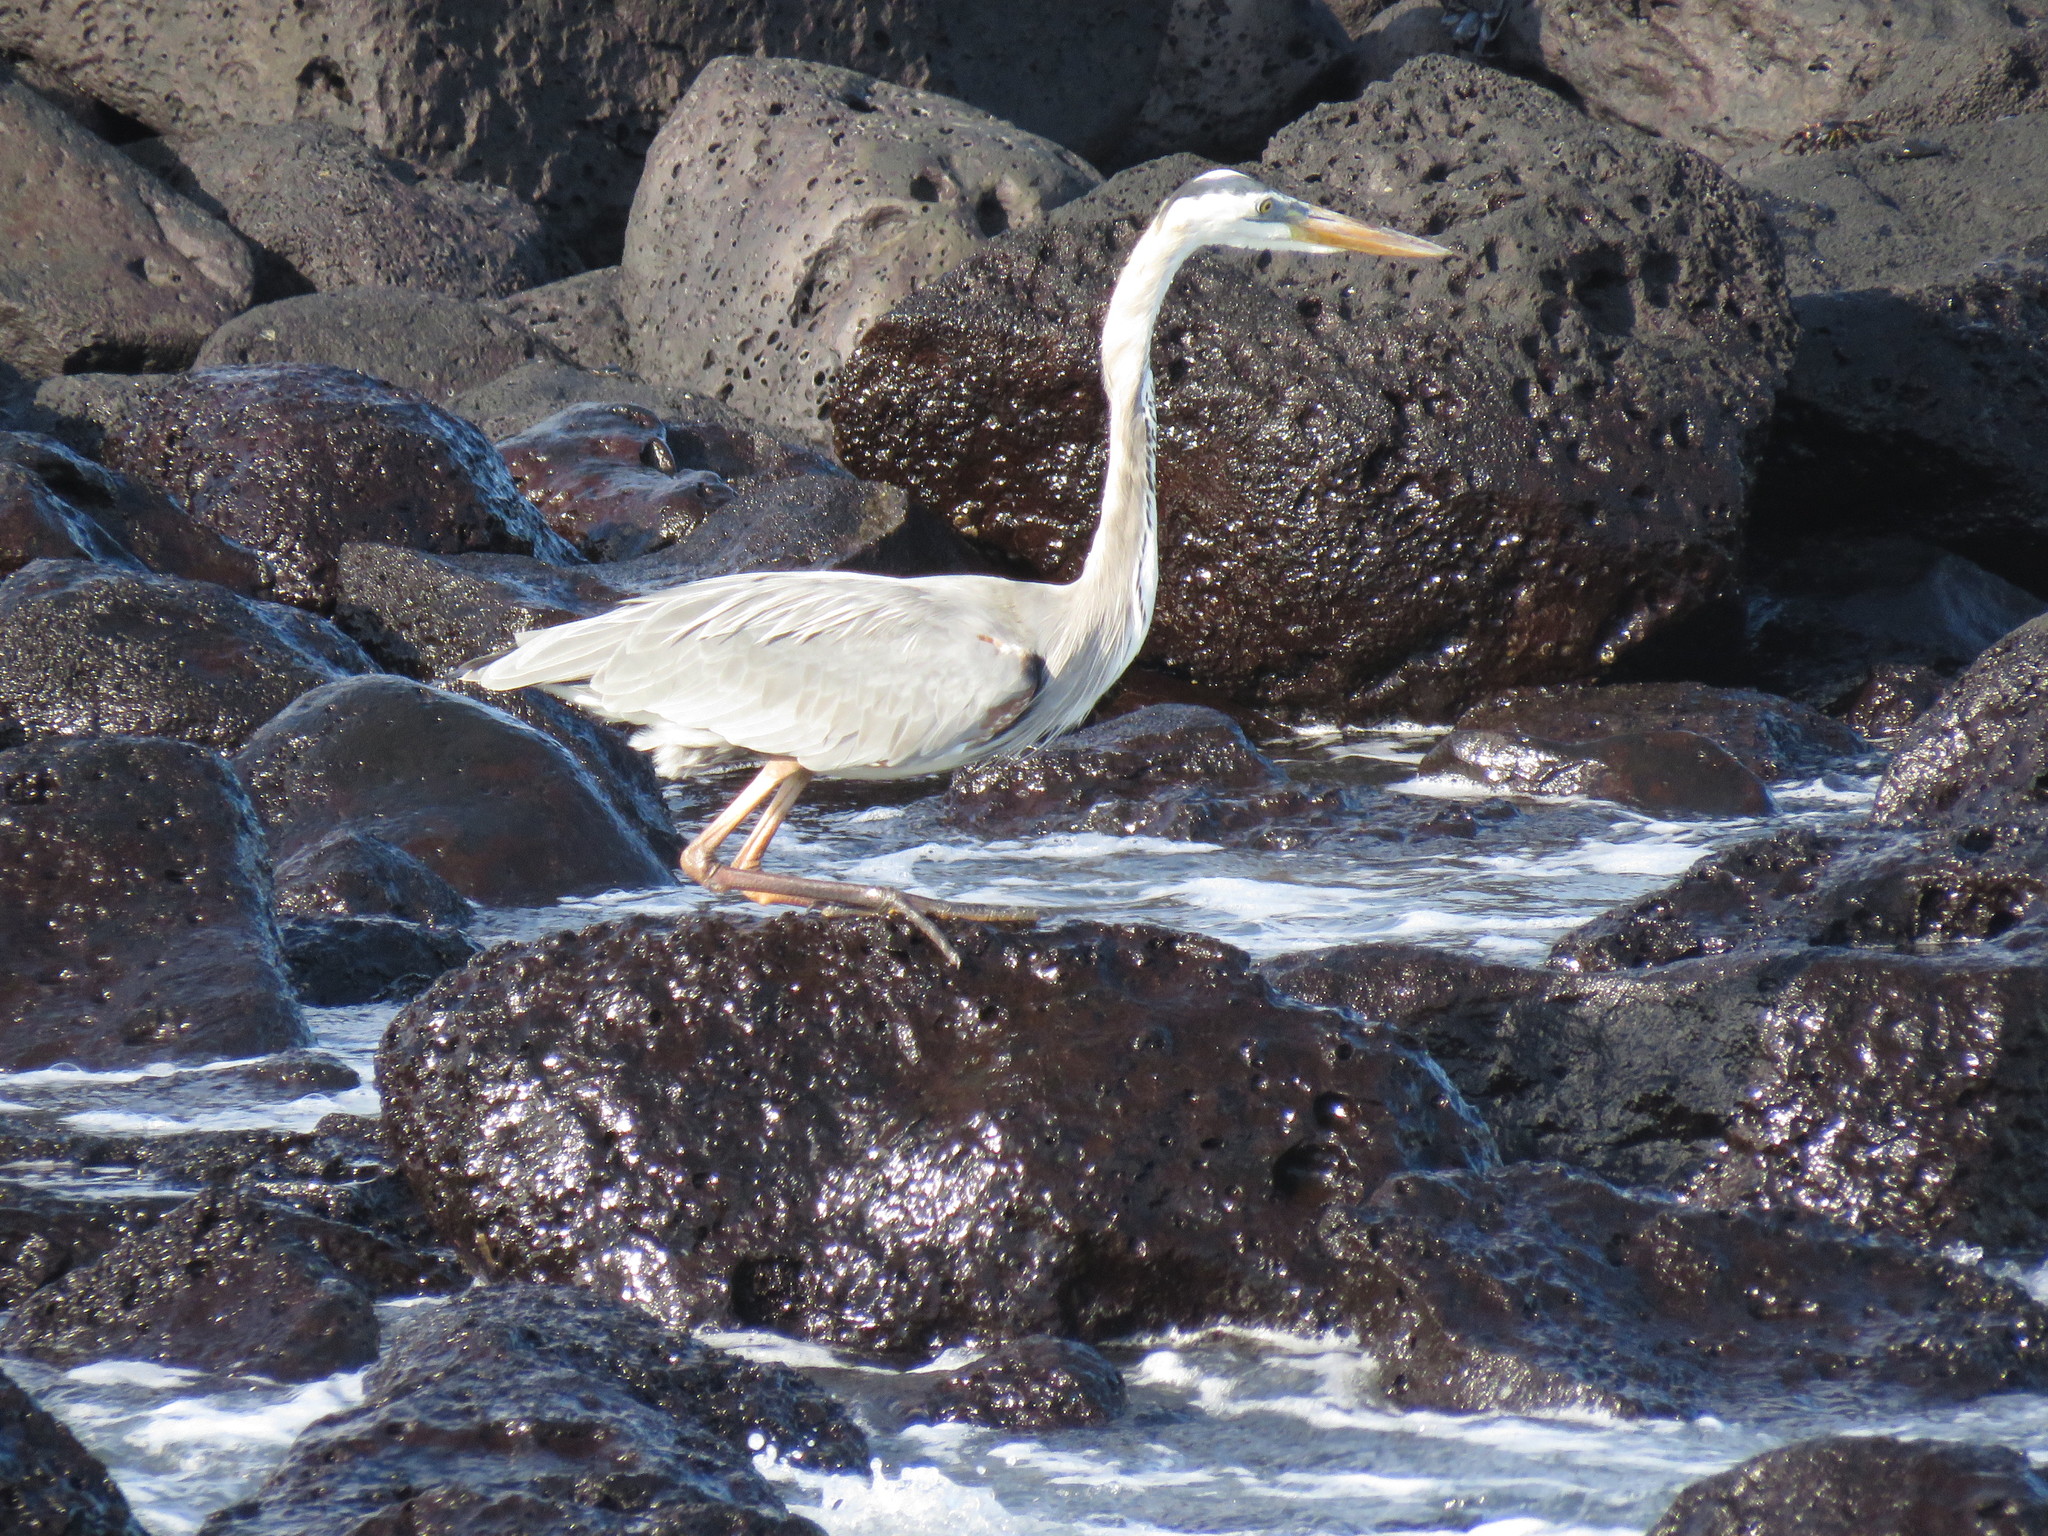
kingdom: Animalia
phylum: Chordata
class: Aves
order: Pelecaniformes
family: Ardeidae
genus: Ardea
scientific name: Ardea herodias
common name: Great blue heron
